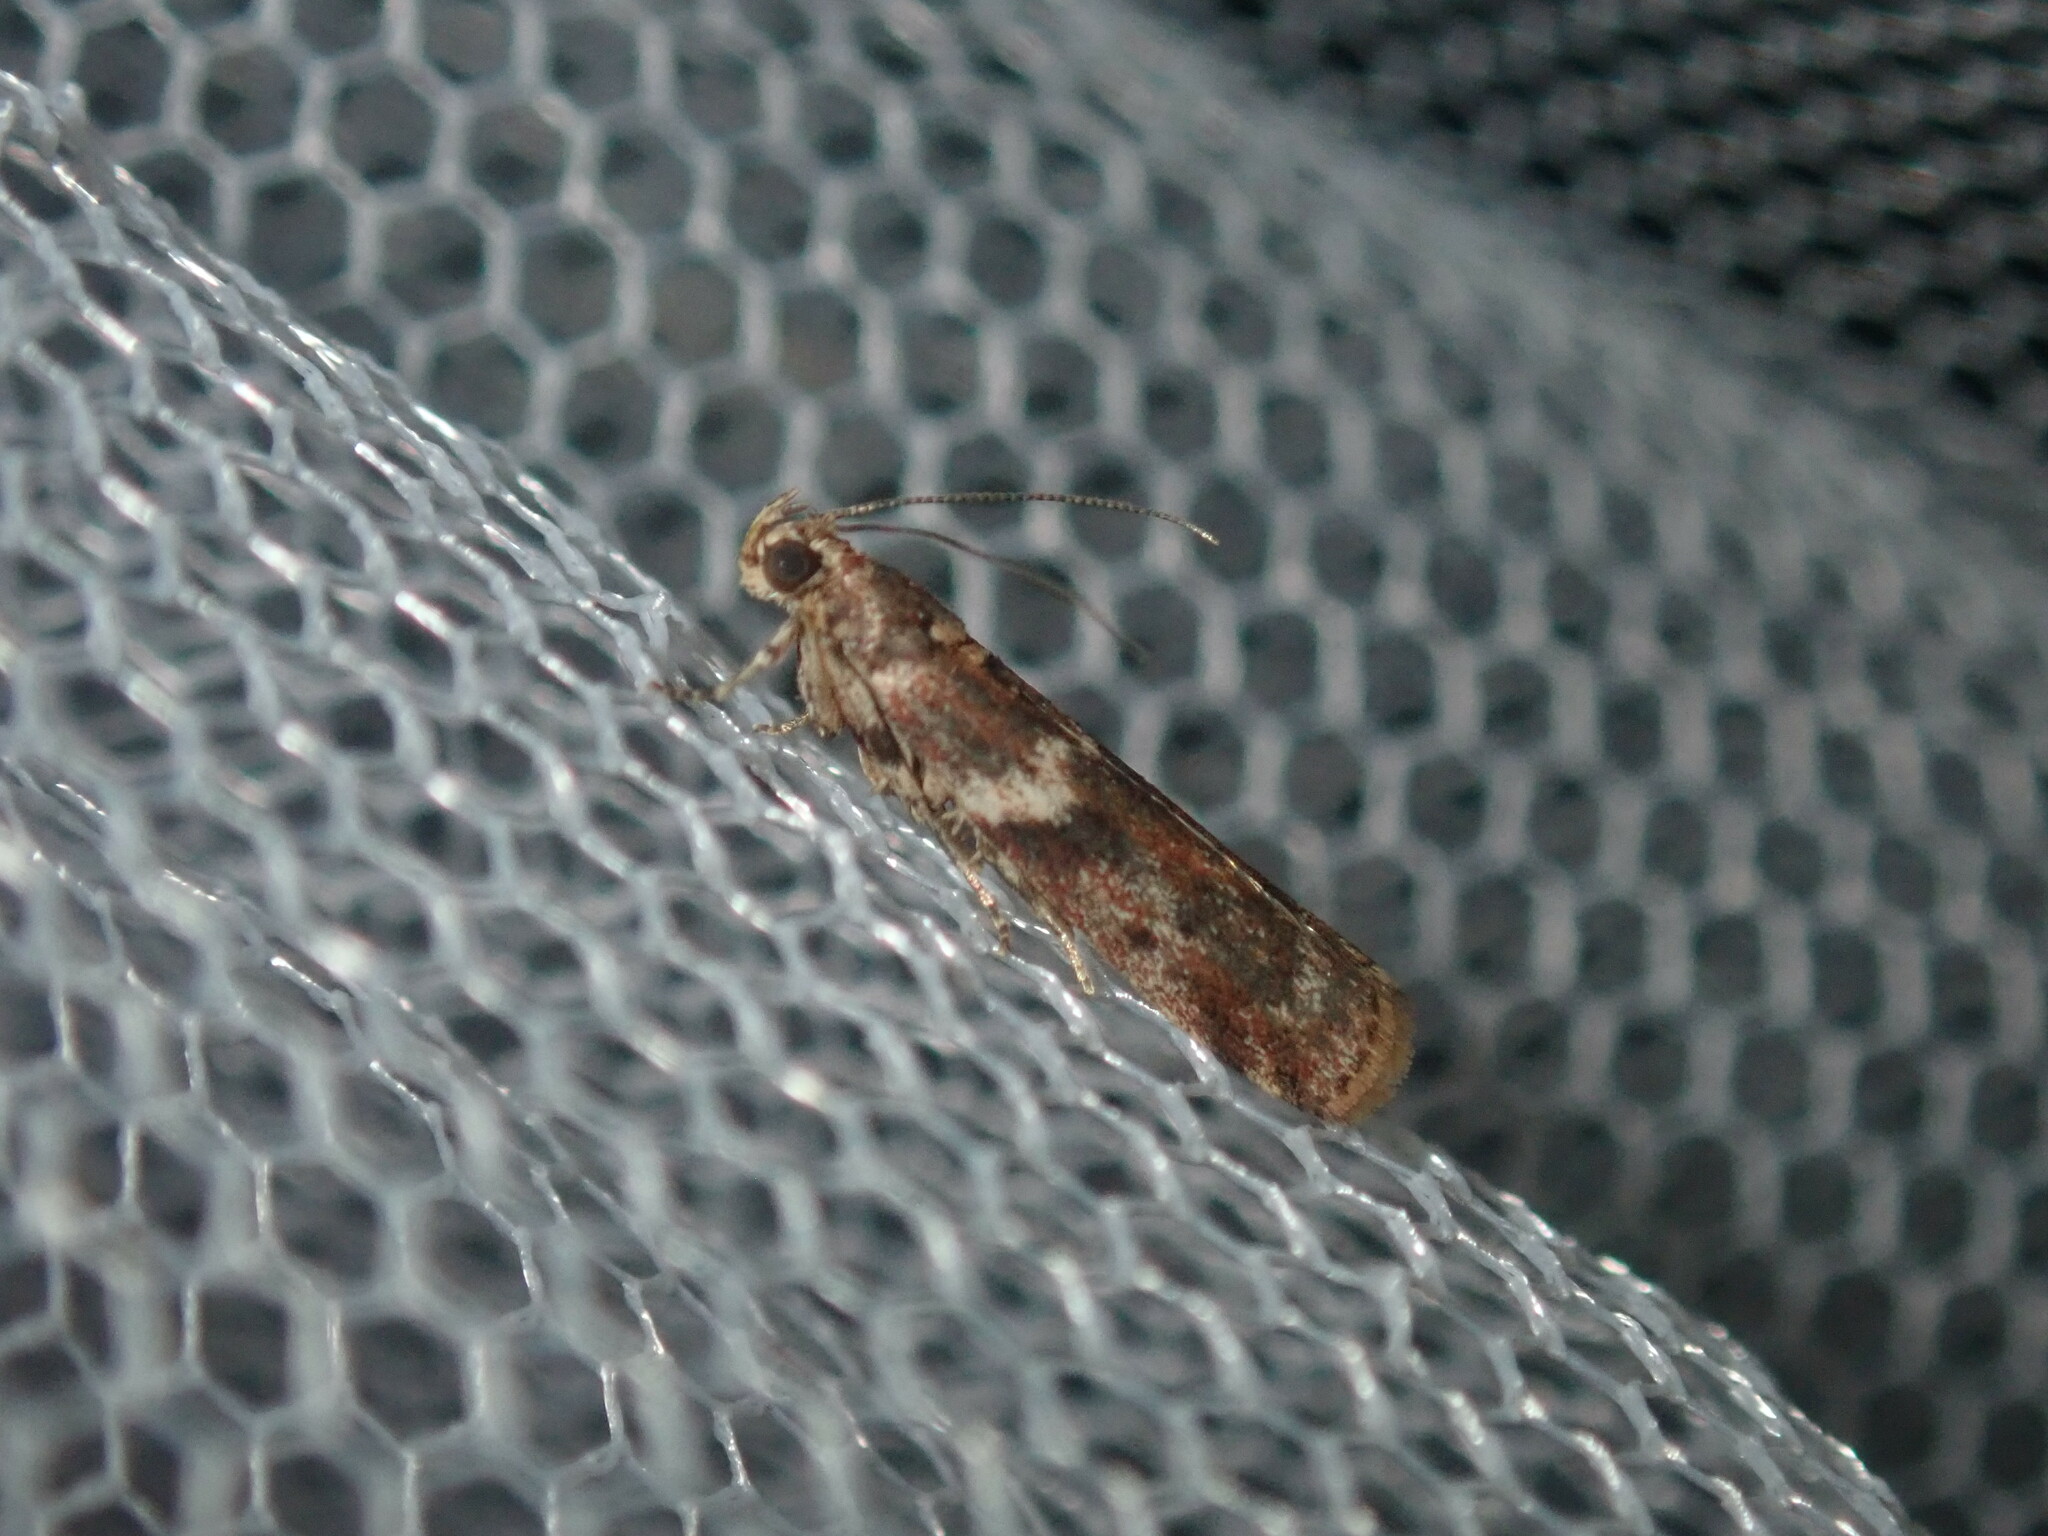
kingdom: Animalia
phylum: Arthropoda
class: Insecta
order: Lepidoptera
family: Pyralidae
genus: Ephestiopsis
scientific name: Ephestiopsis oenobarella
